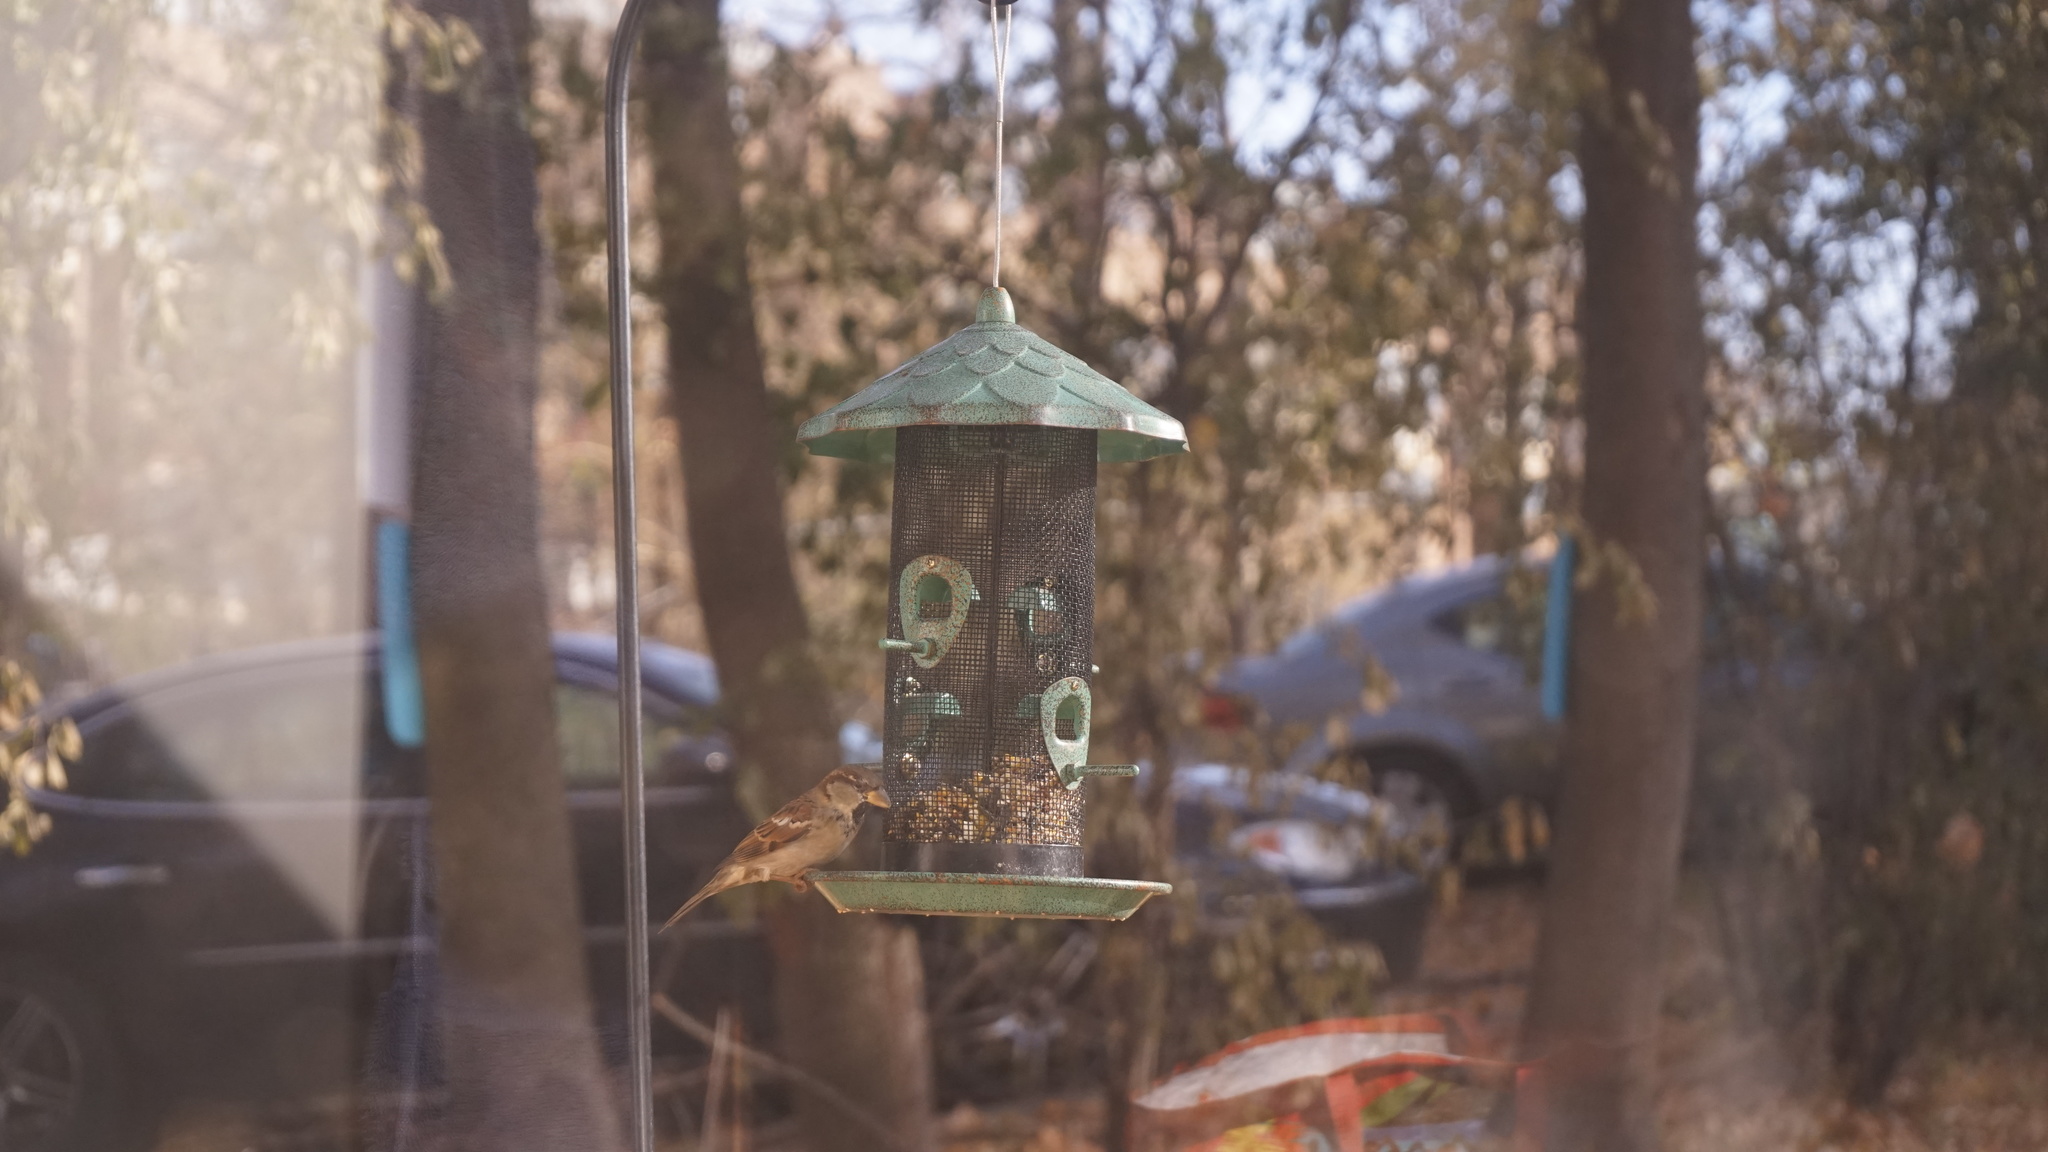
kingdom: Animalia
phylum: Chordata
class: Aves
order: Passeriformes
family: Passeridae
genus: Passer
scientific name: Passer domesticus
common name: House sparrow
